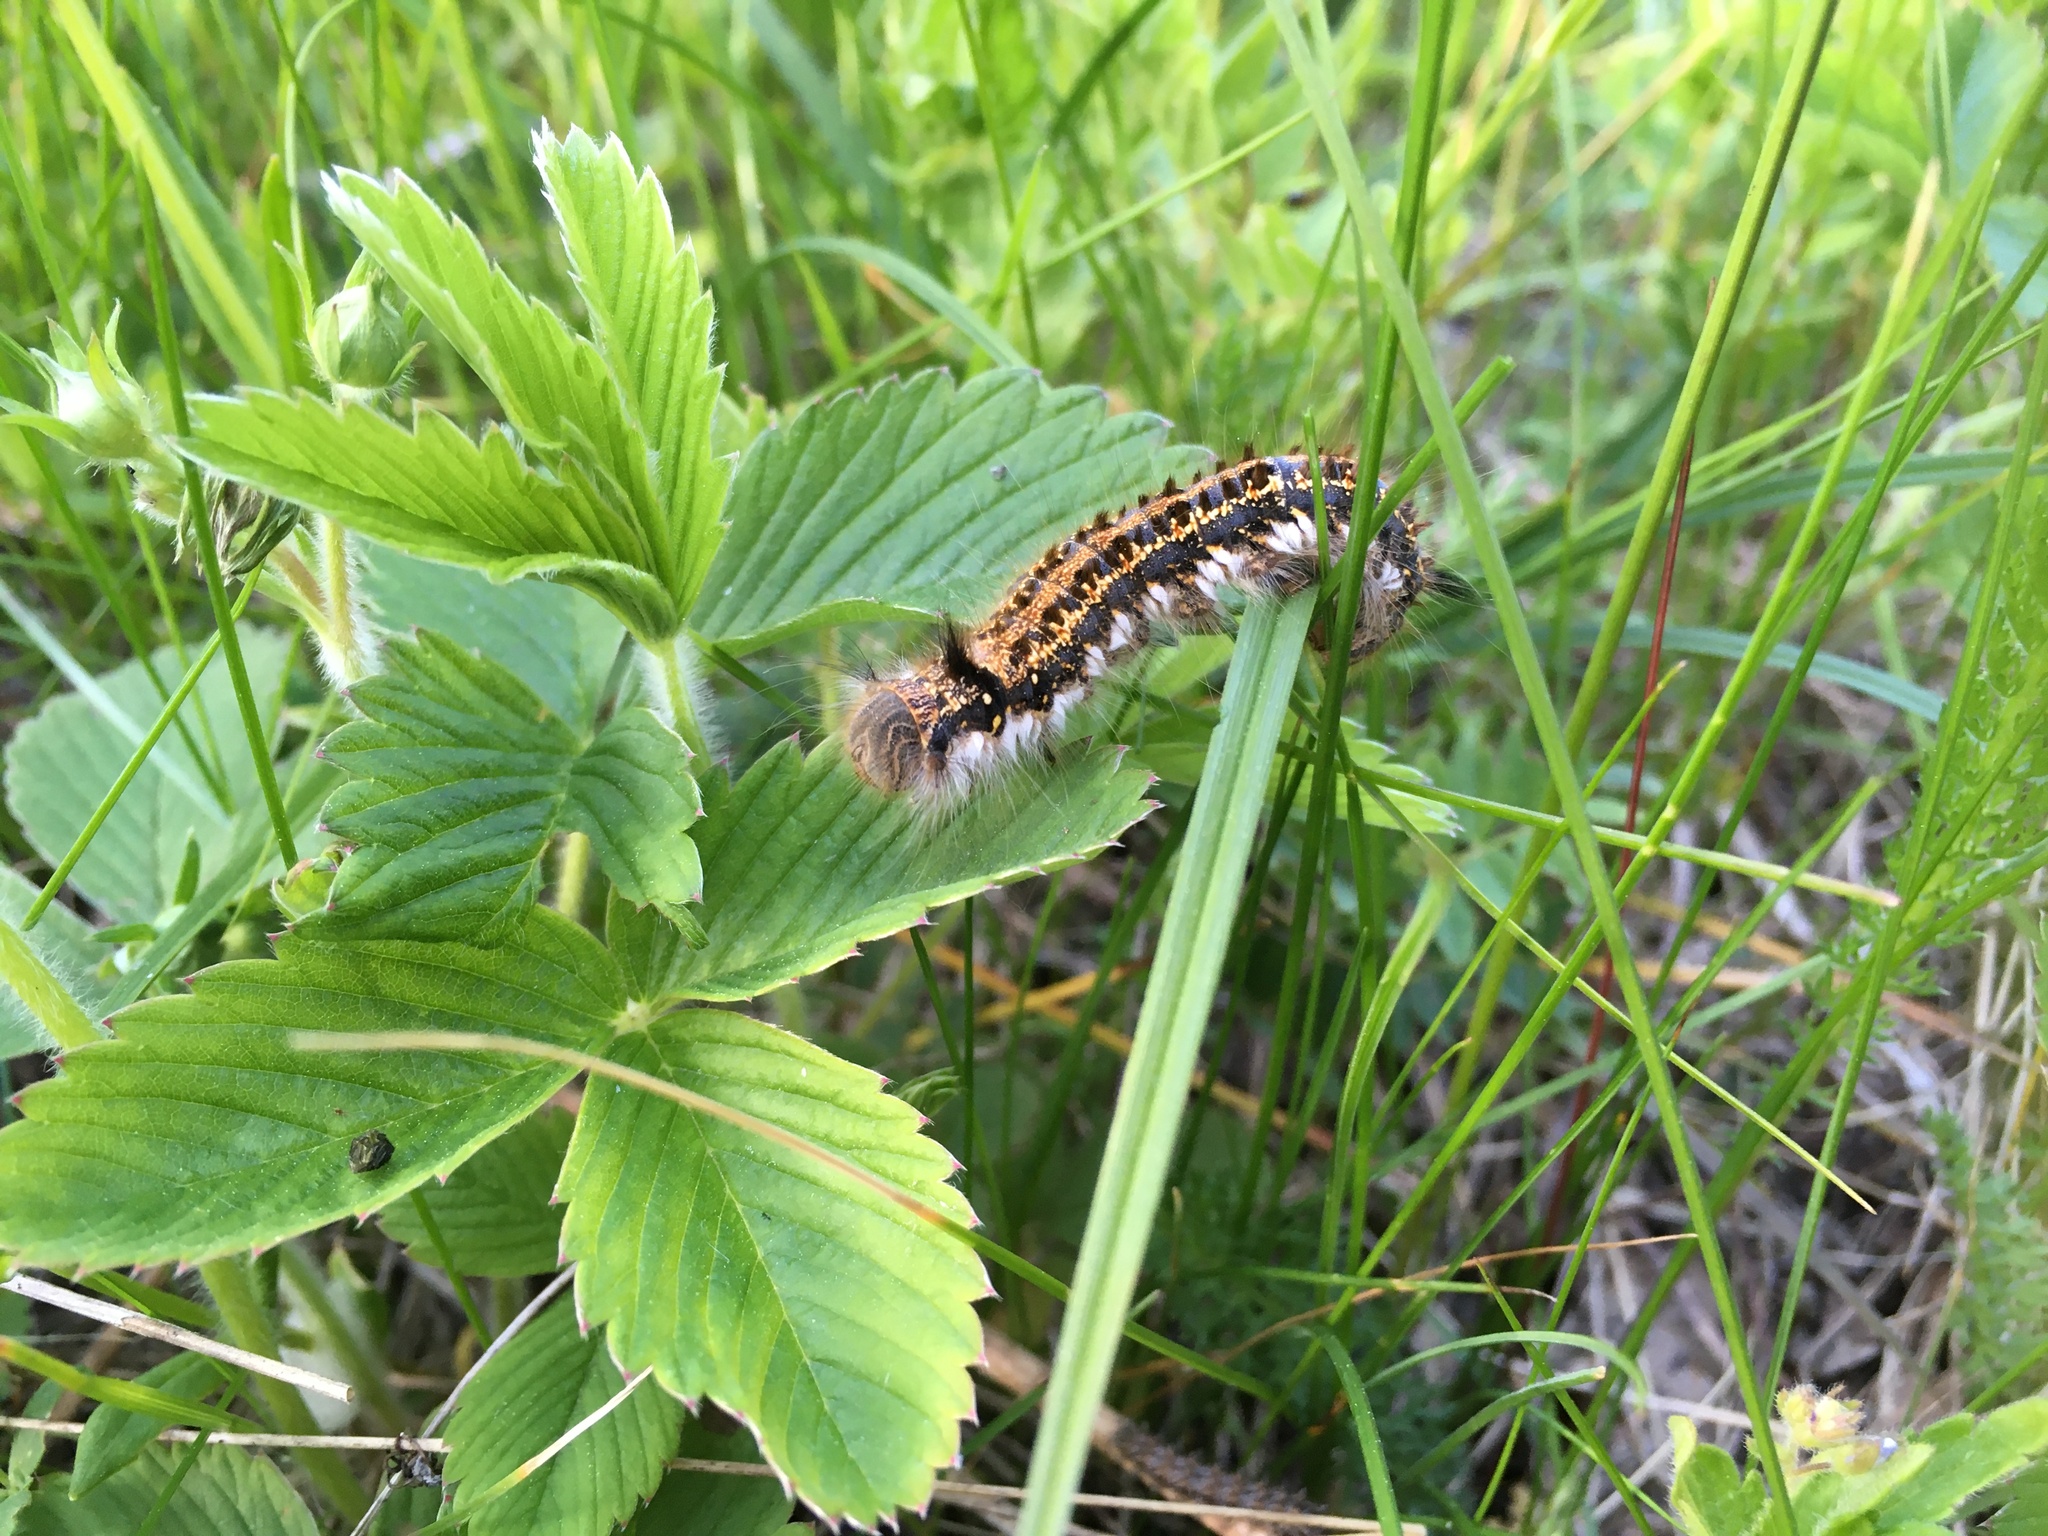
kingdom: Animalia
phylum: Arthropoda
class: Insecta
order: Lepidoptera
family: Lasiocampidae
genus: Euthrix
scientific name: Euthrix potatoria
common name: Drinker
